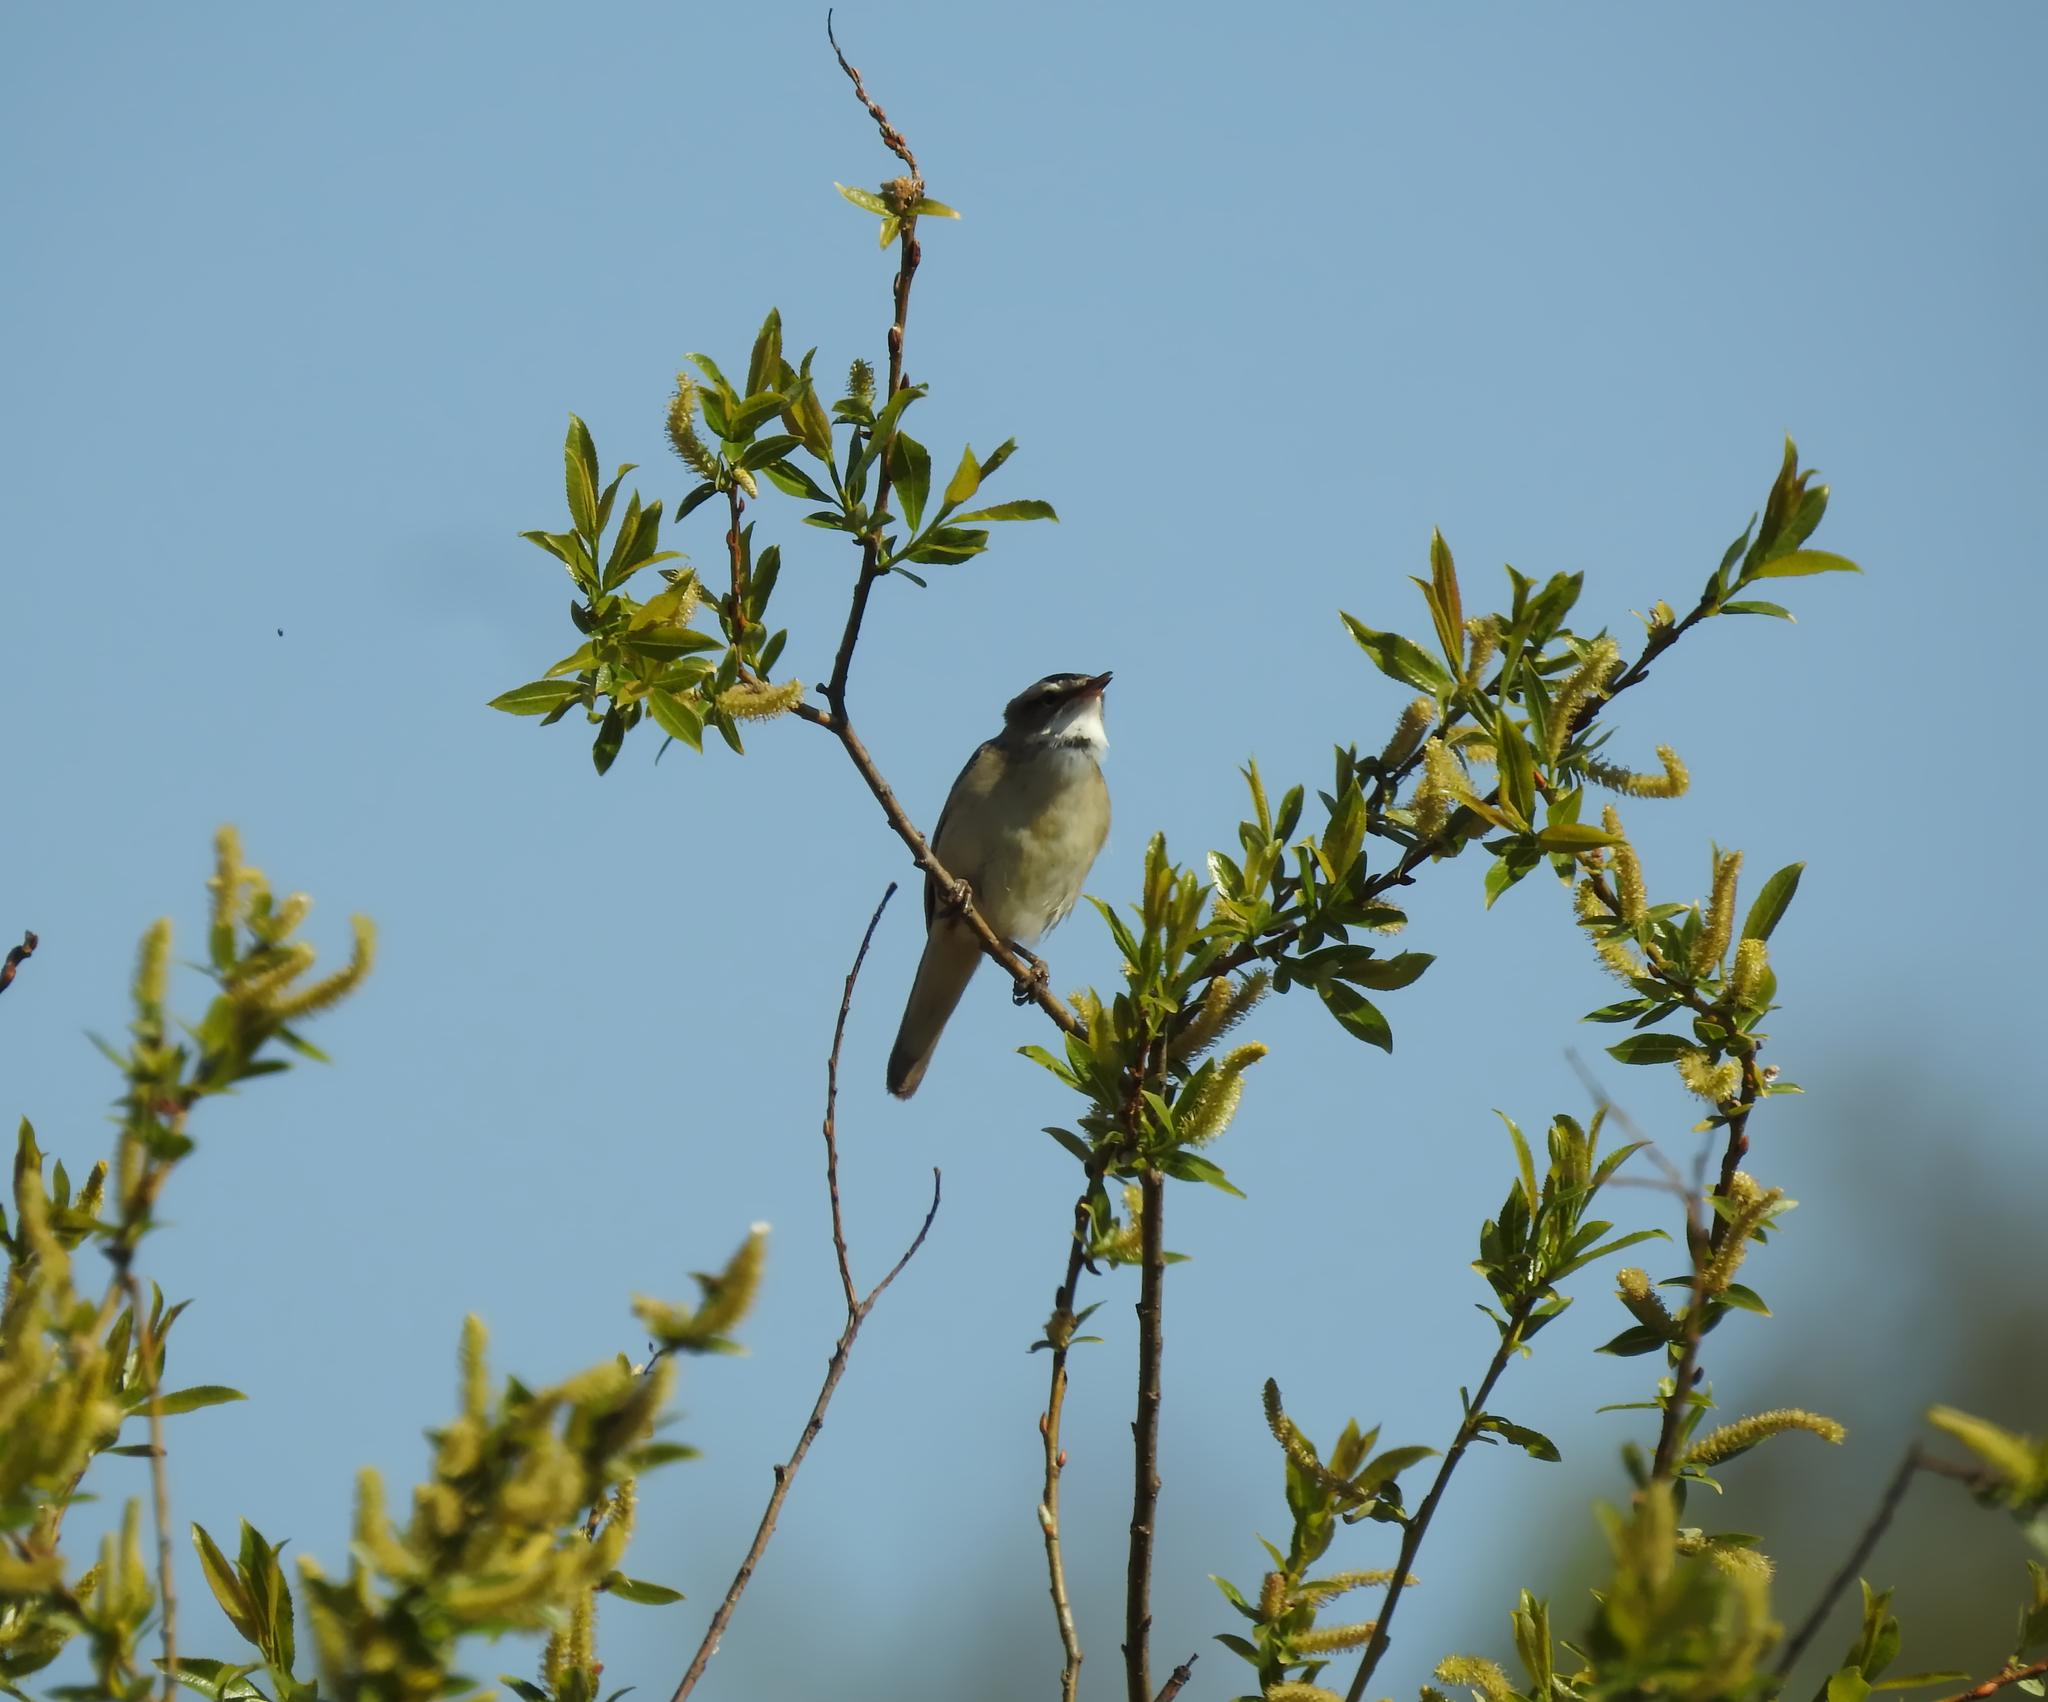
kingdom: Animalia
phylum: Chordata
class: Aves
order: Passeriformes
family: Acrocephalidae
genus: Acrocephalus
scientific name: Acrocephalus schoenobaenus
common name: Sedge warbler
